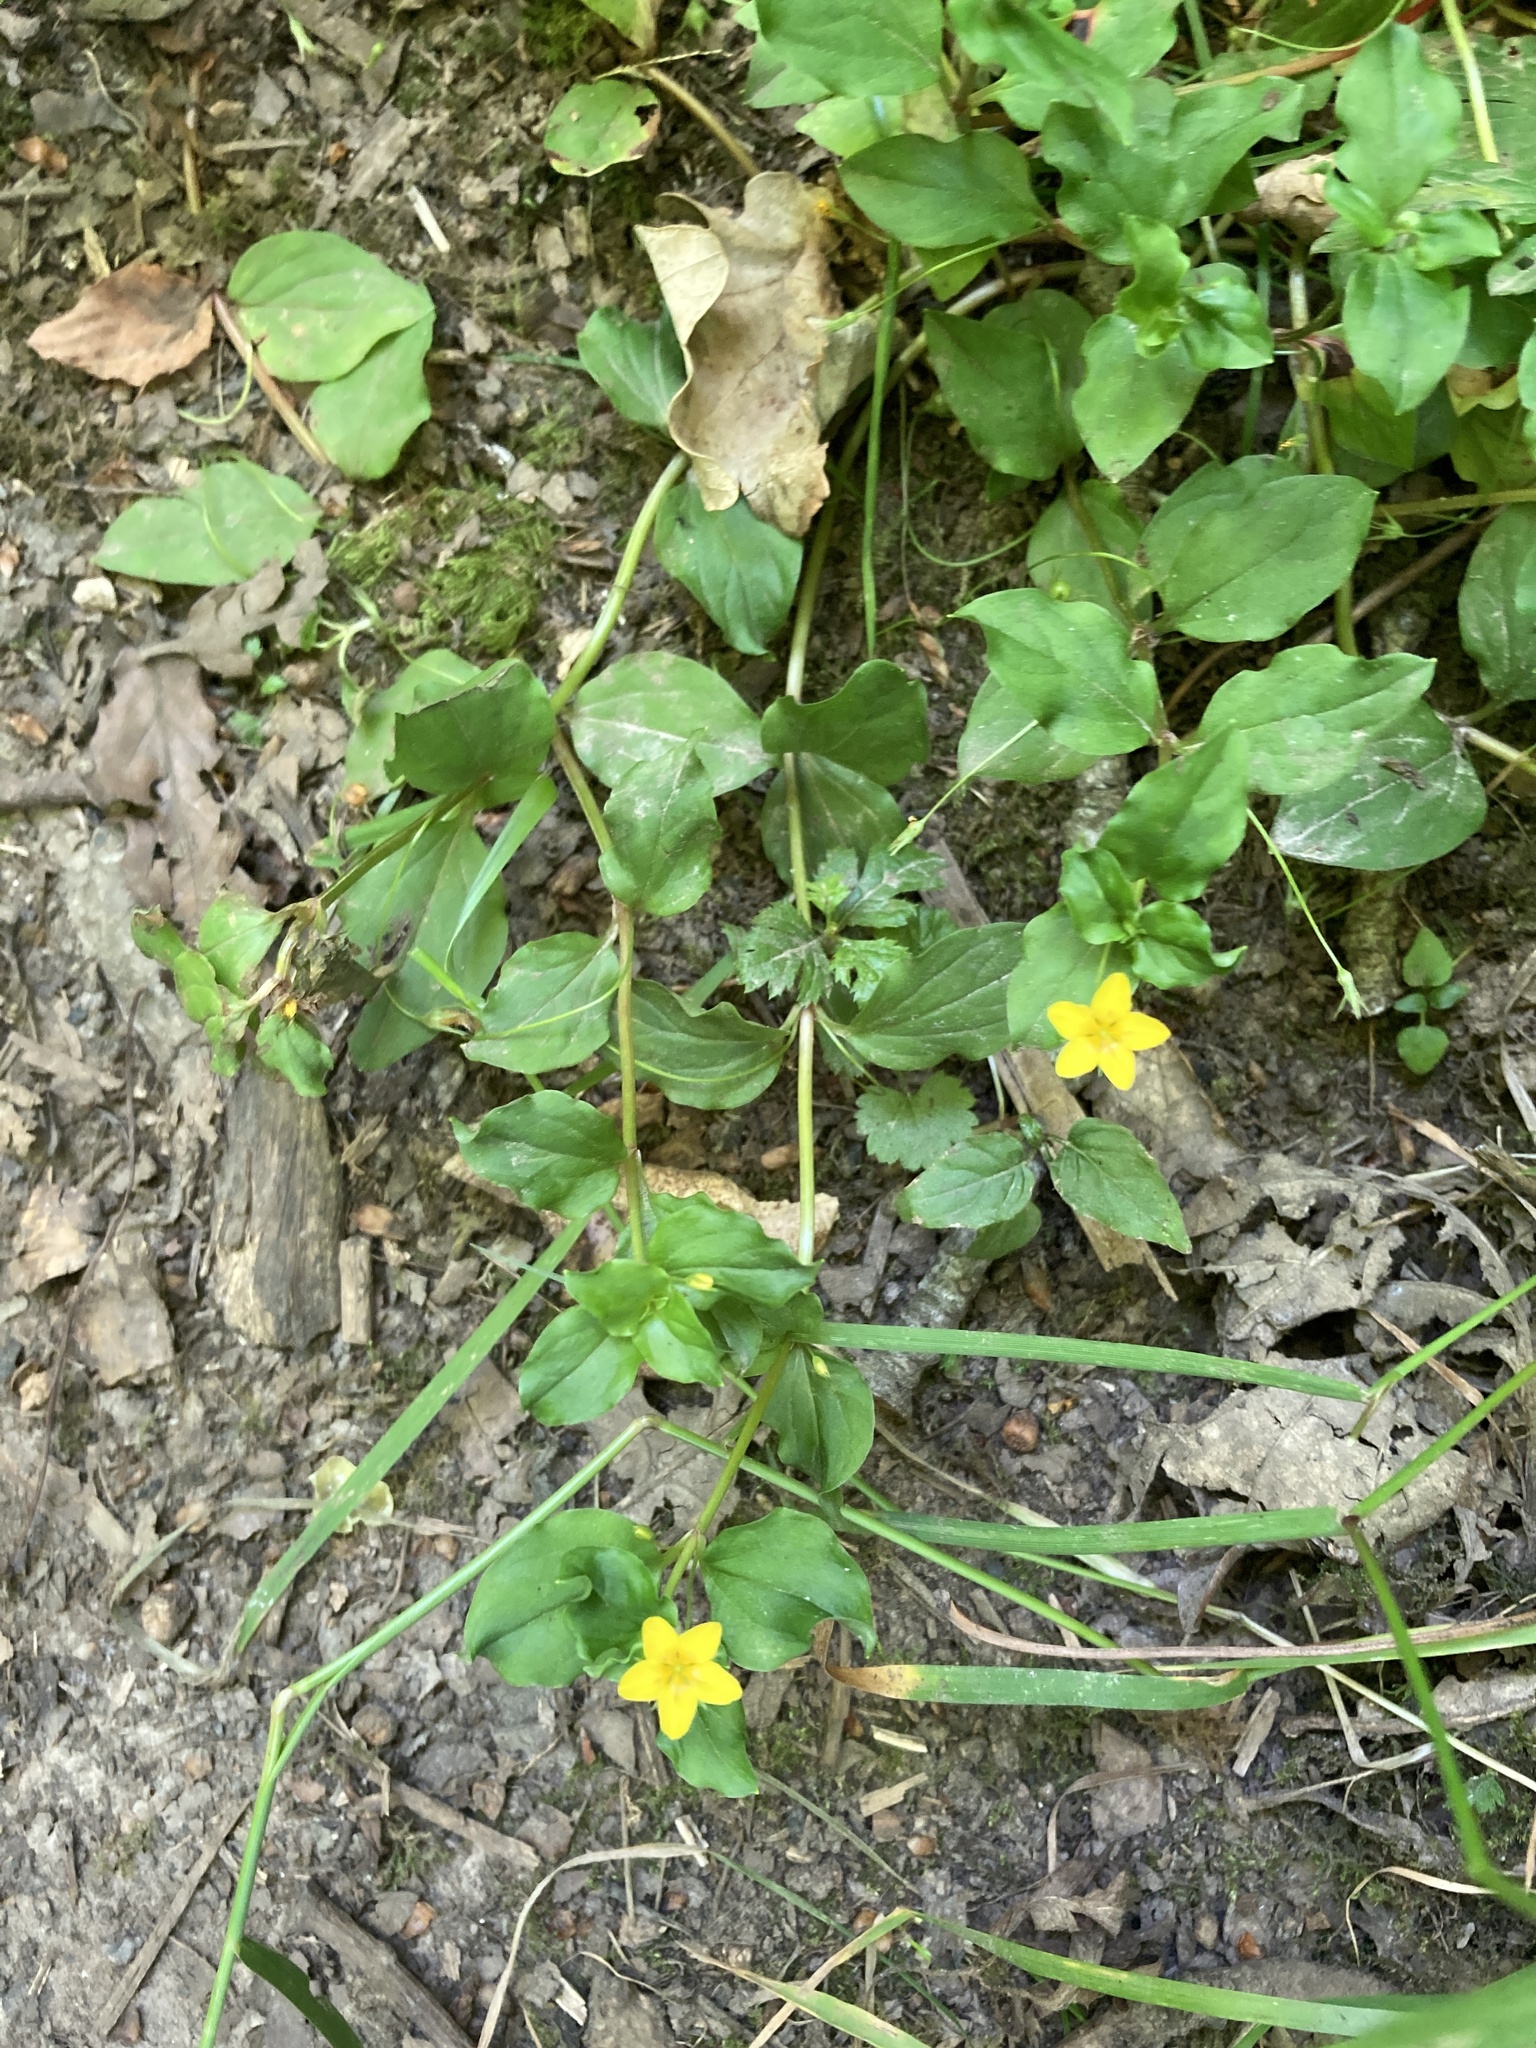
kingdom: Plantae
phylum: Tracheophyta
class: Magnoliopsida
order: Ericales
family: Primulaceae
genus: Lysimachia
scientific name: Lysimachia nemorum
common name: Yellow pimpernel
